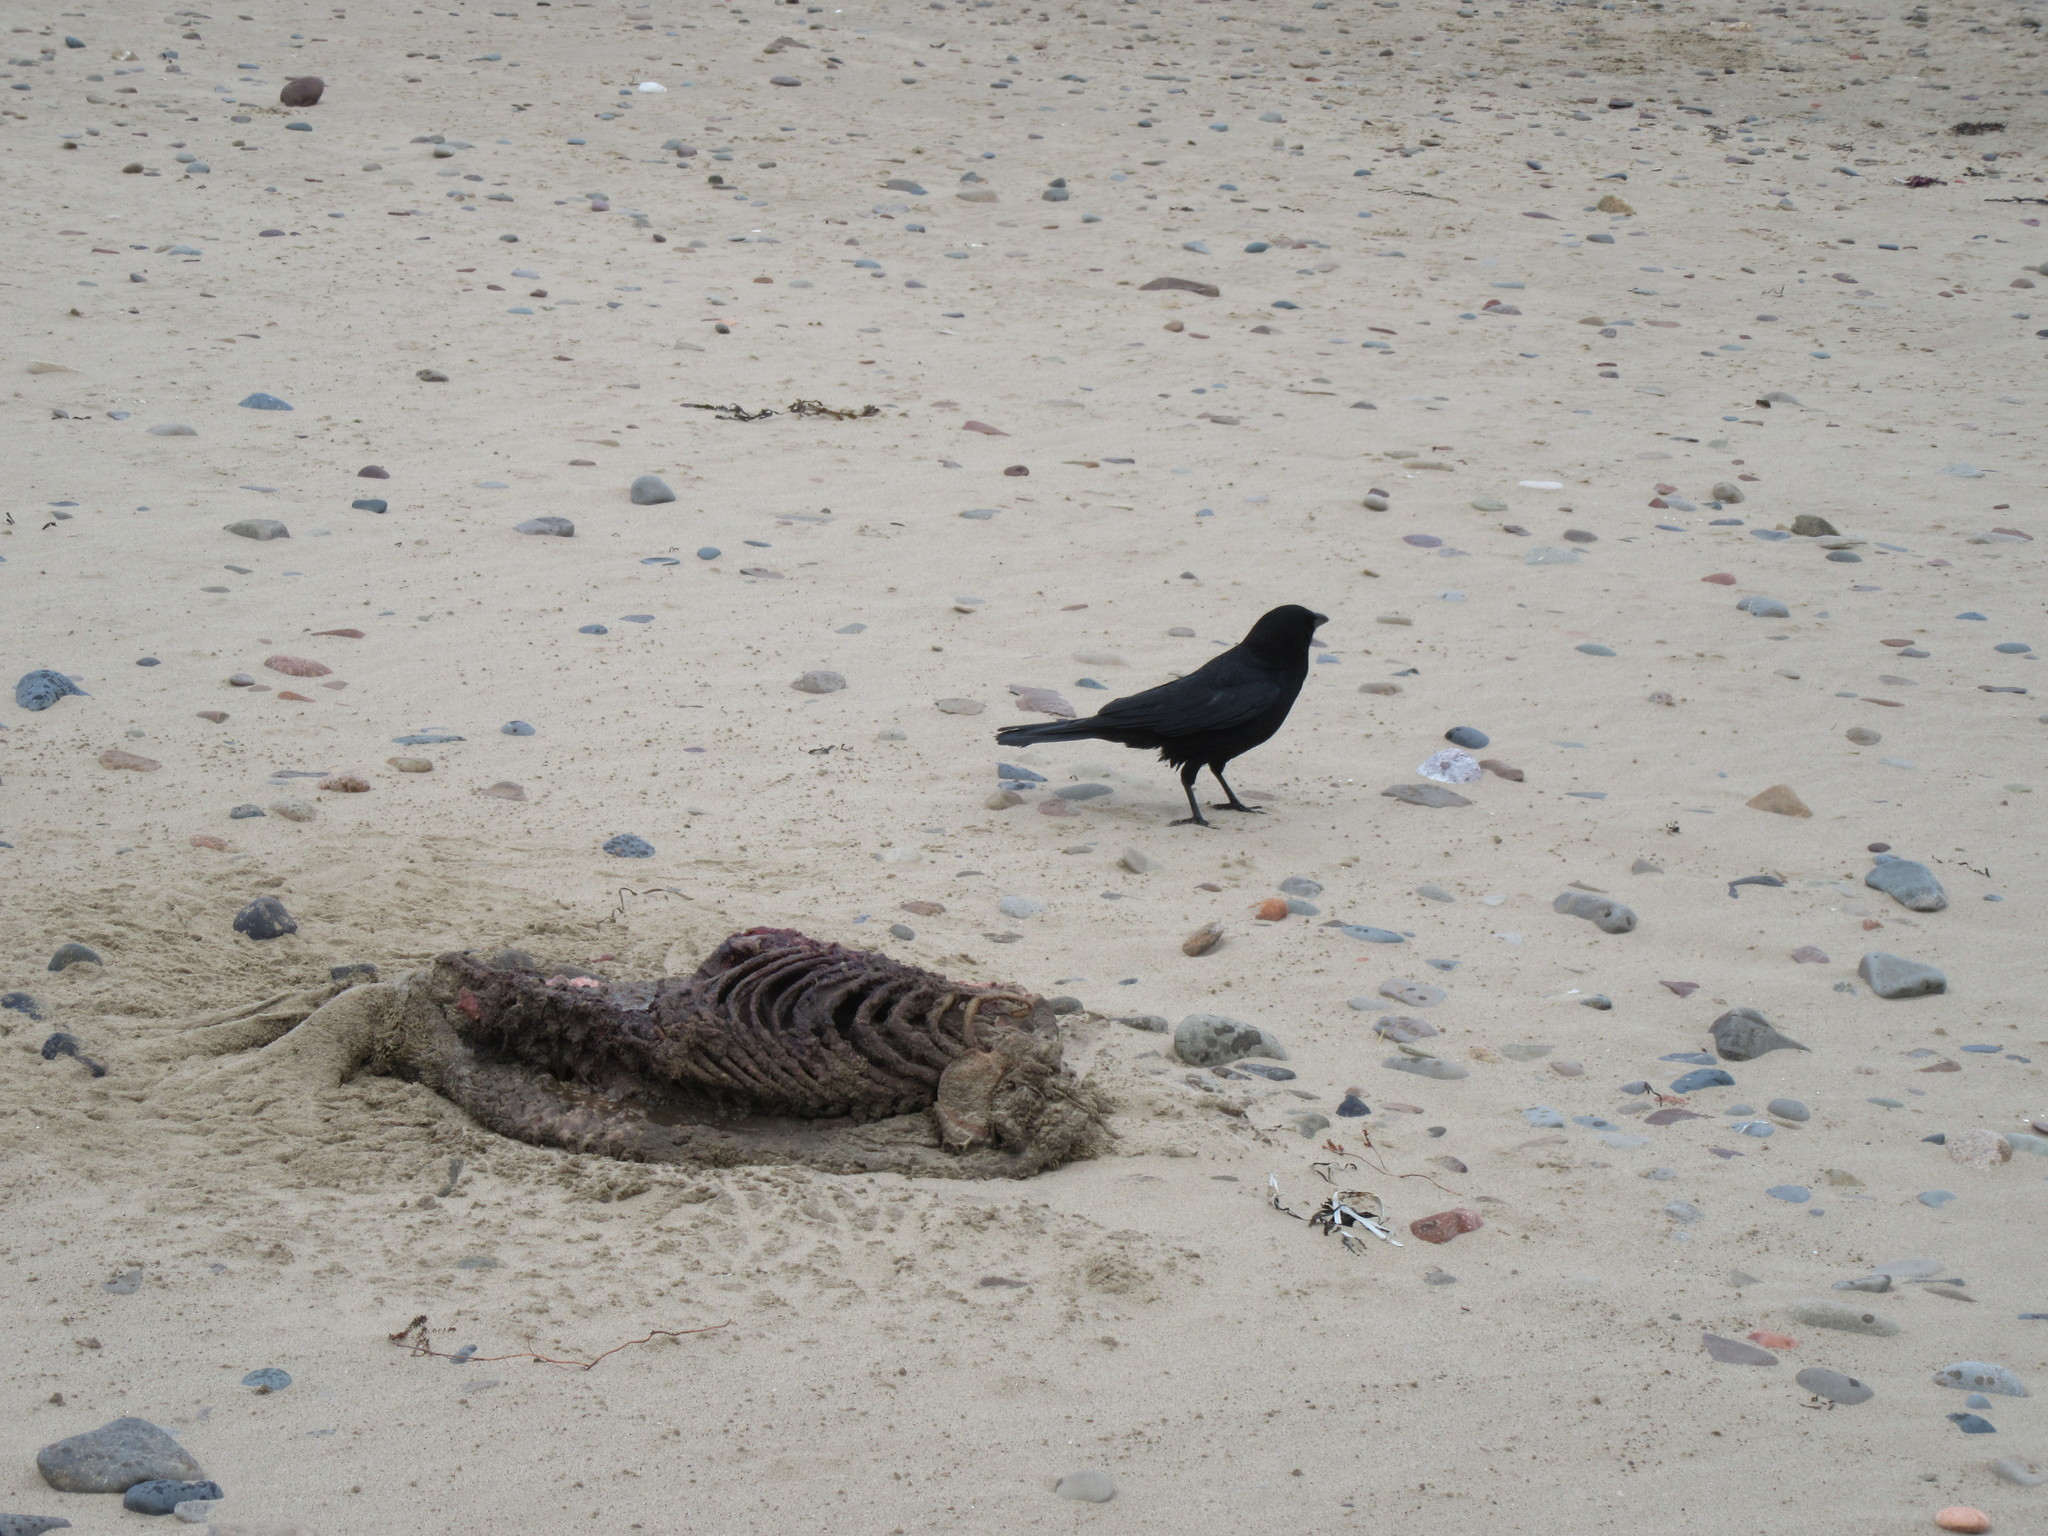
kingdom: Animalia
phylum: Chordata
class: Aves
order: Passeriformes
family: Corvidae
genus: Corvus
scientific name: Corvus brachyrhynchos
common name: American crow
